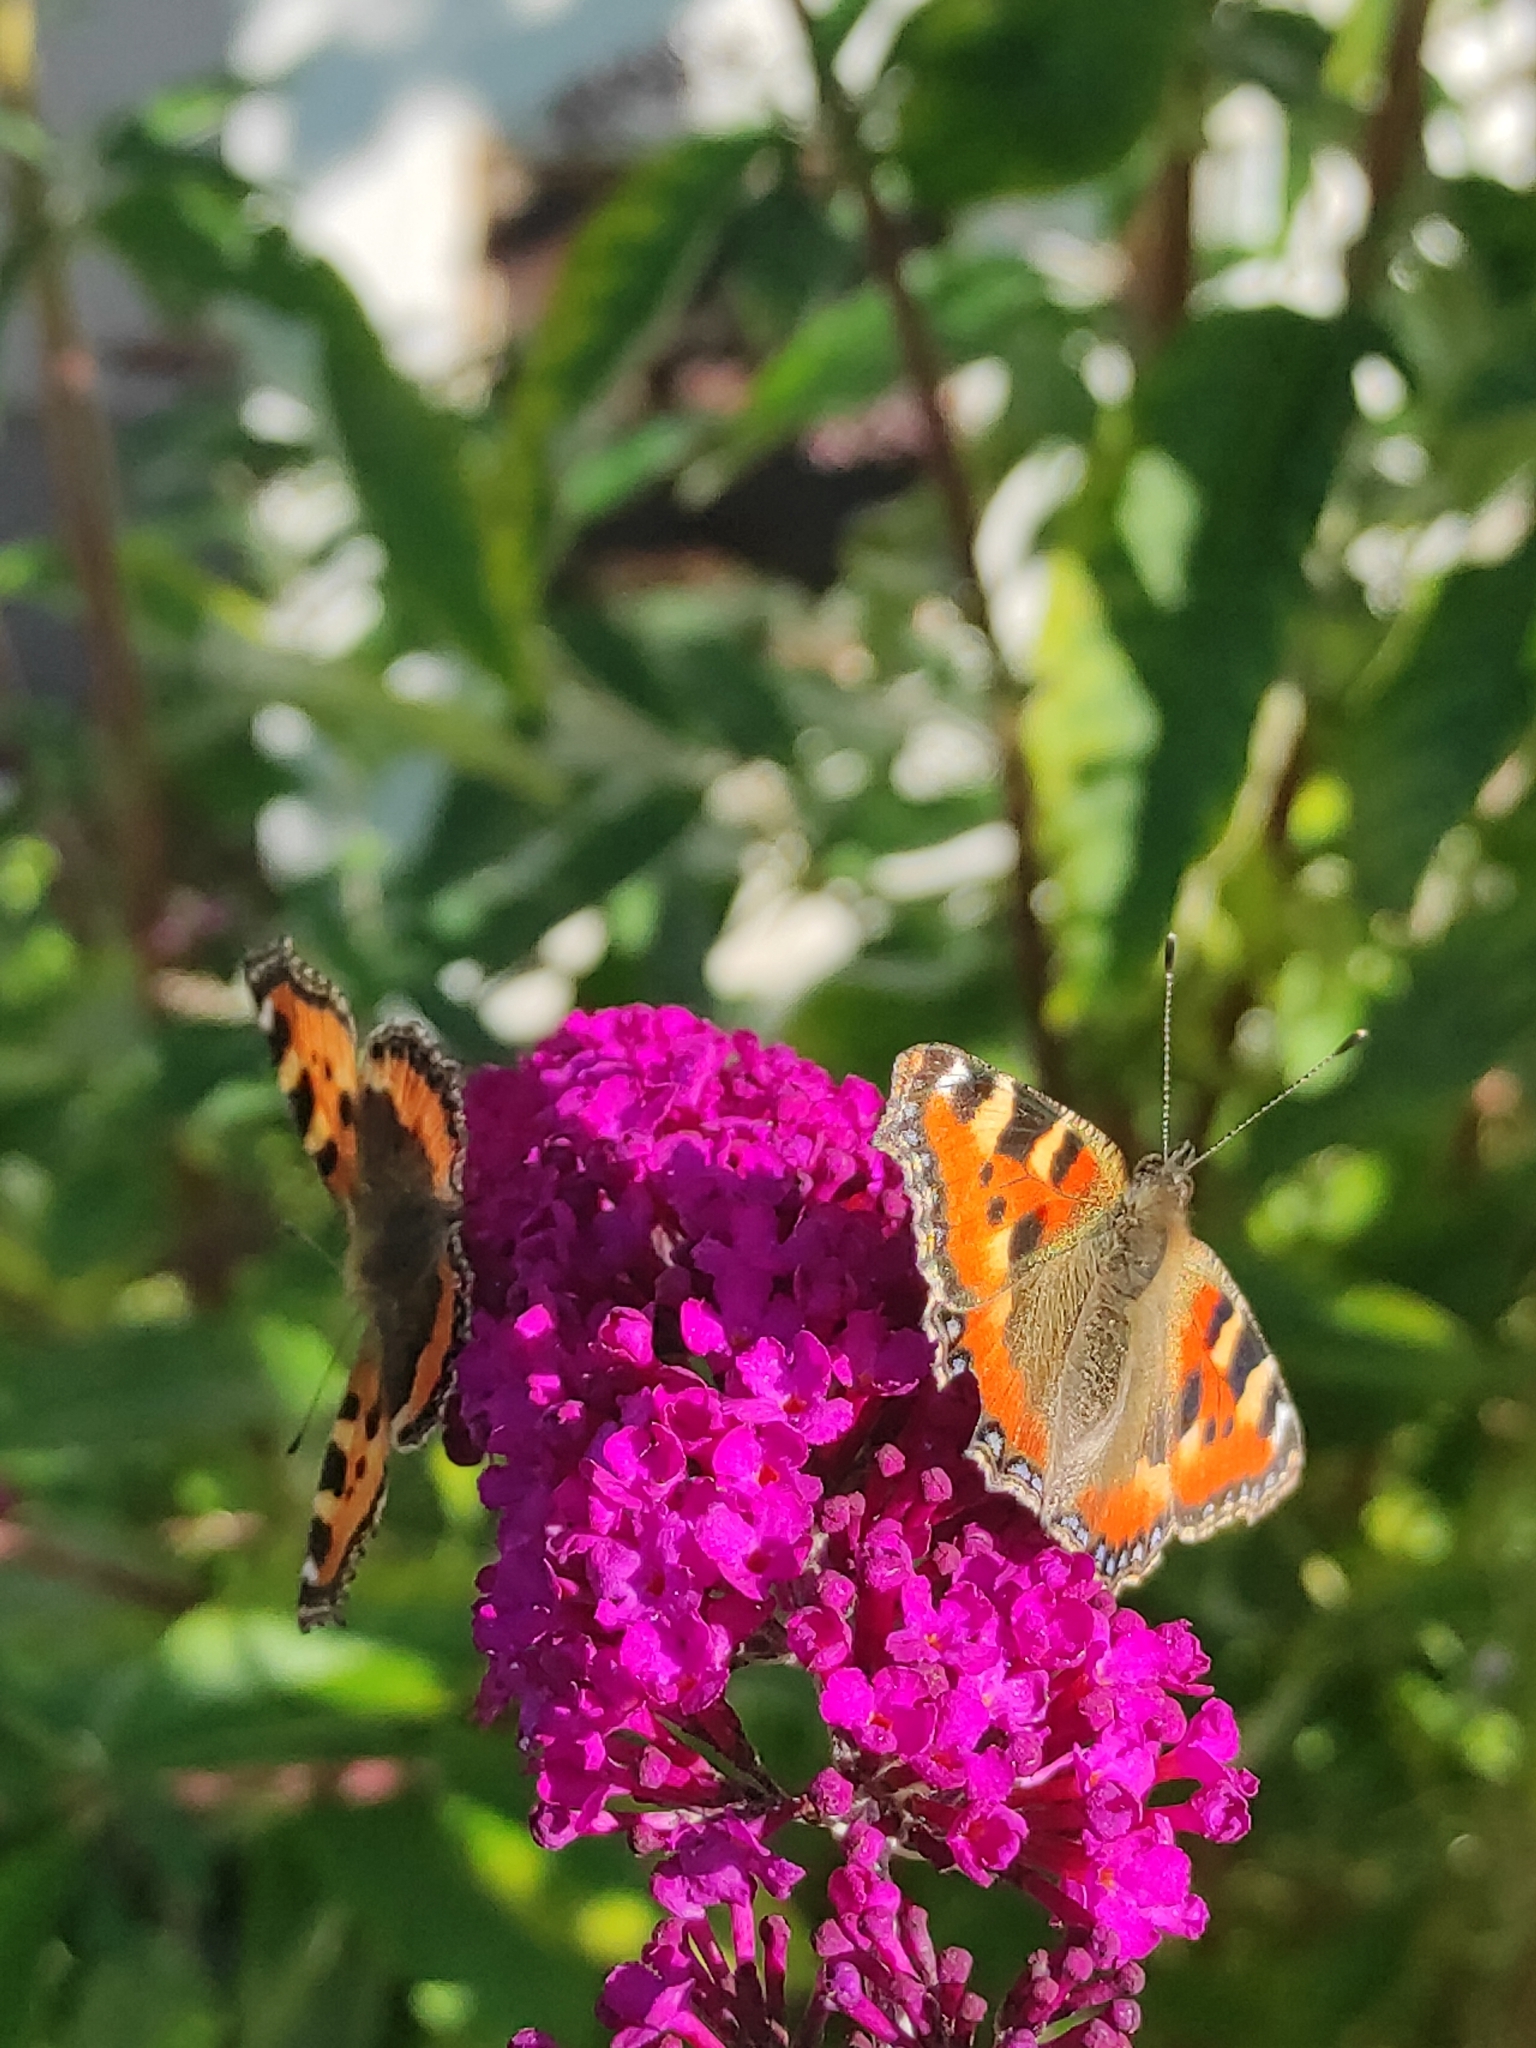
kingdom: Animalia
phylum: Arthropoda
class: Insecta
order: Lepidoptera
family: Nymphalidae
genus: Aglais
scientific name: Aglais urticae
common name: Small tortoiseshell
